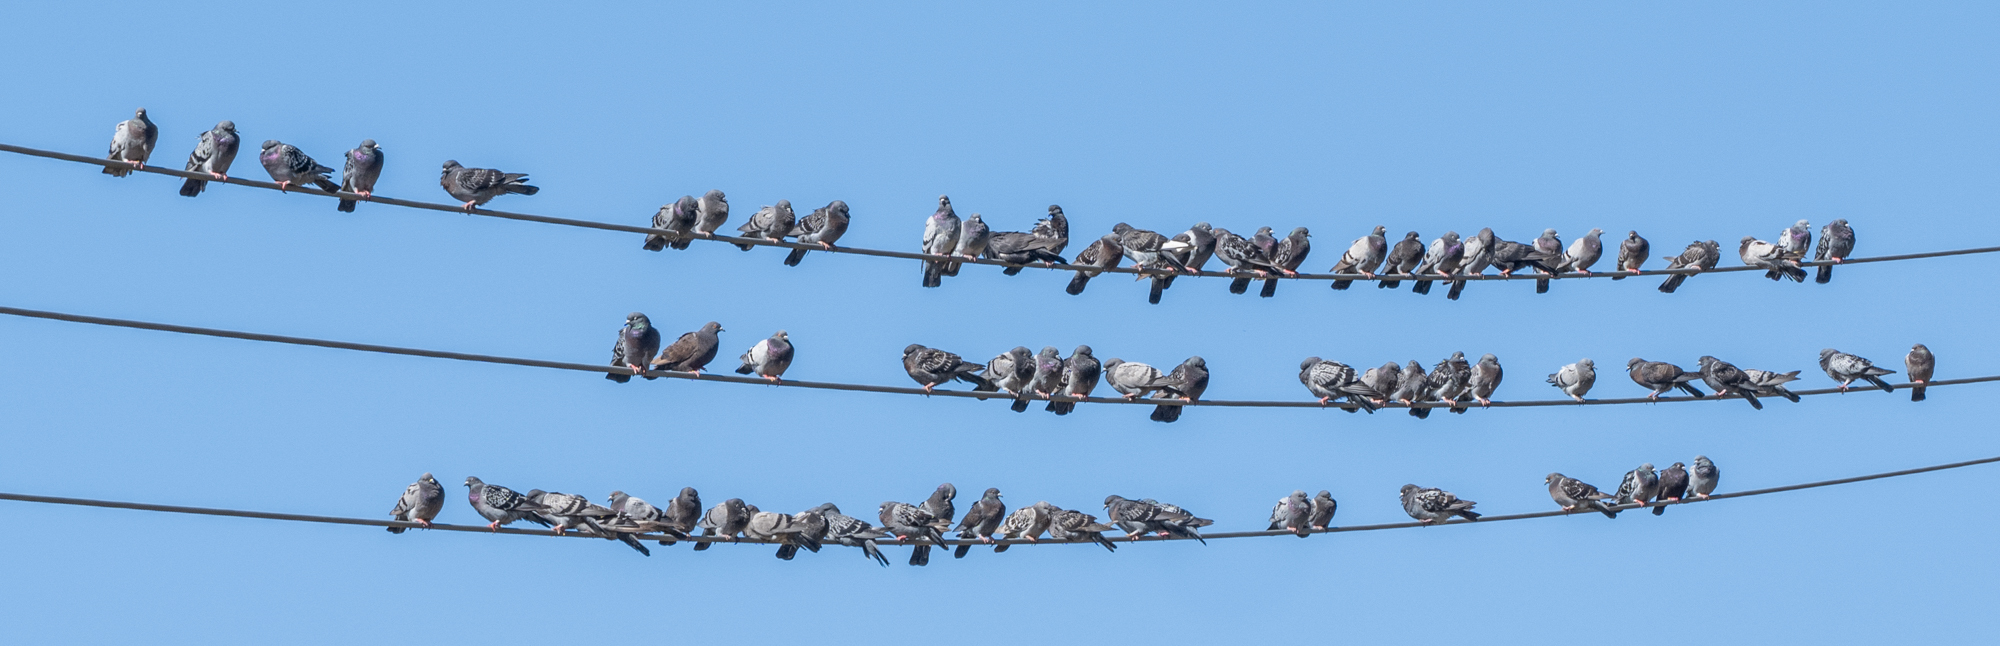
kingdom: Animalia
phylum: Chordata
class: Aves
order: Columbiformes
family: Columbidae
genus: Columba
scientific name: Columba livia
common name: Rock pigeon
